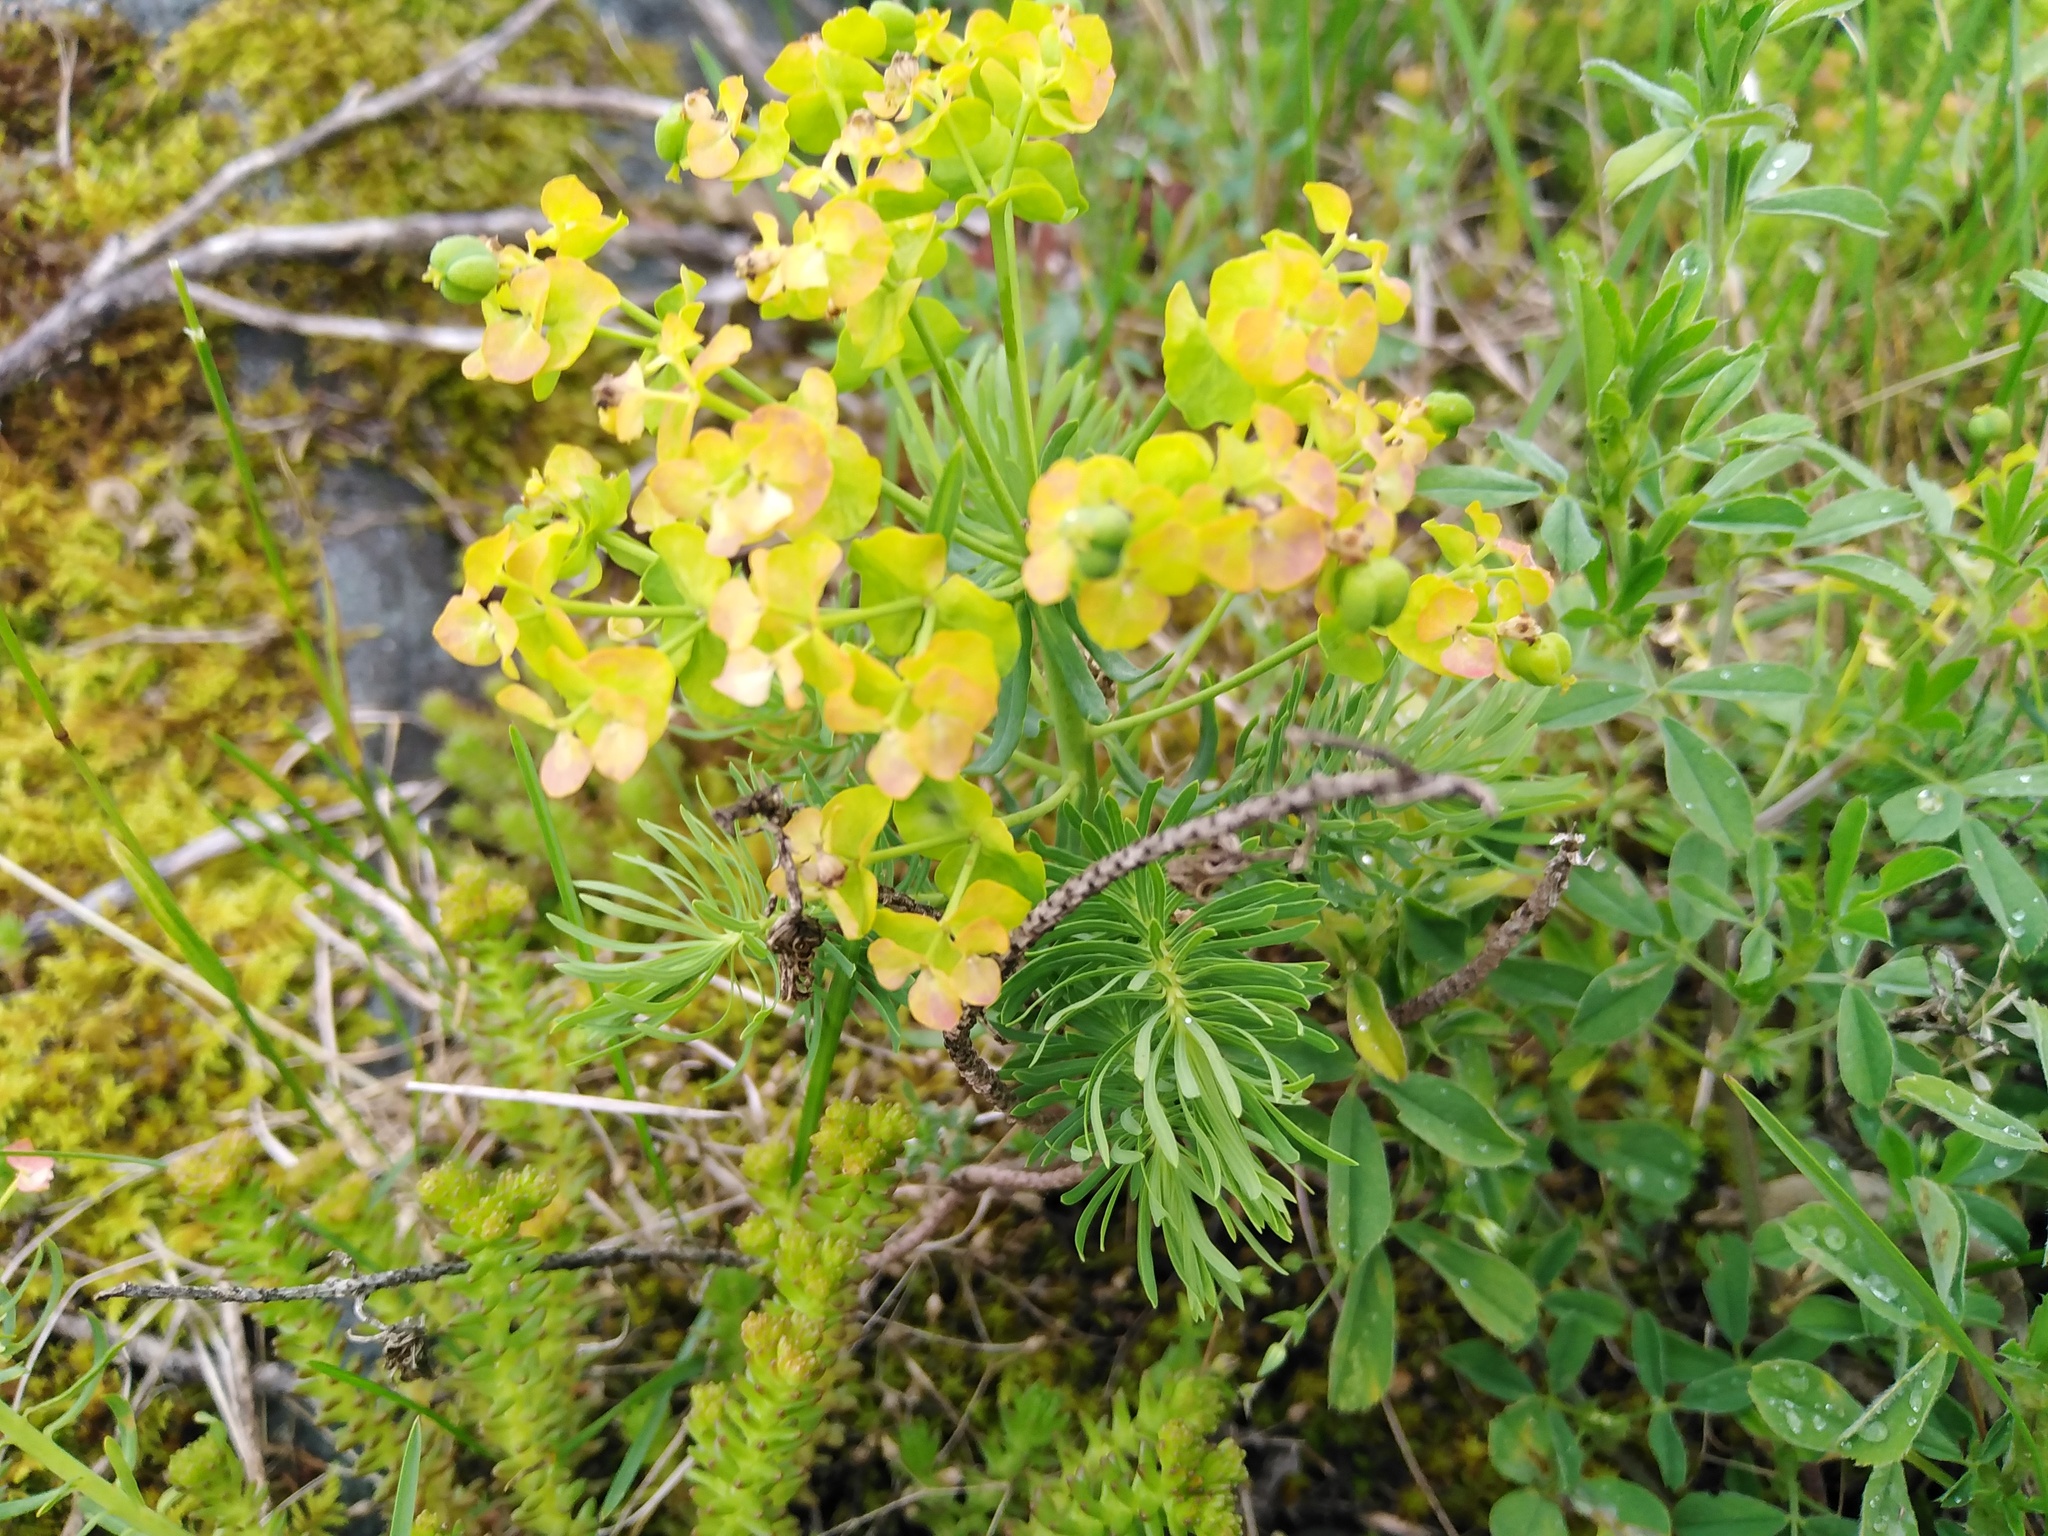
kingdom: Plantae
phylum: Tracheophyta
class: Magnoliopsida
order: Malpighiales
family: Euphorbiaceae
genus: Euphorbia
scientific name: Euphorbia cyparissias
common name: Cypress spurge
